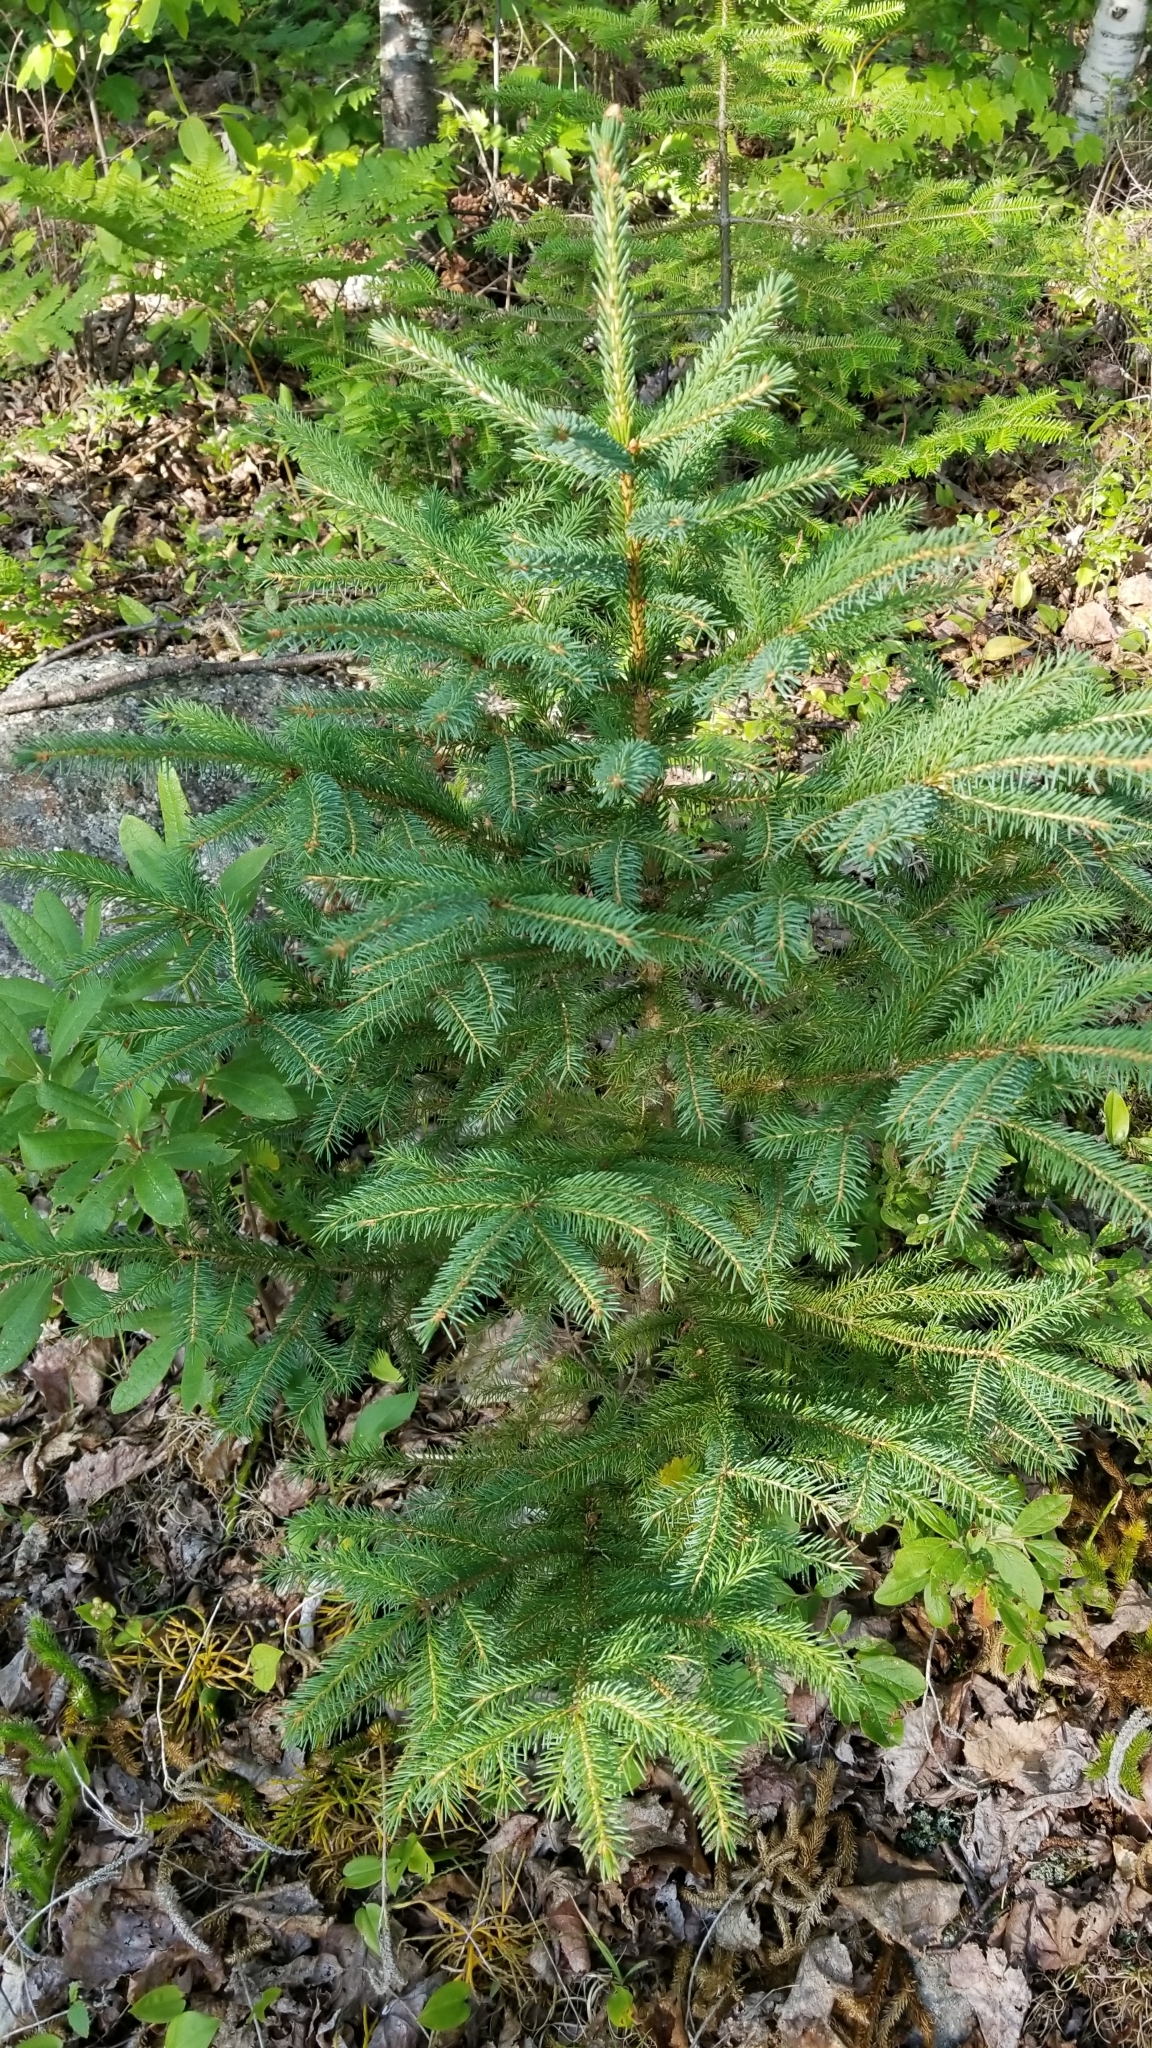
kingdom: Plantae
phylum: Tracheophyta
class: Pinopsida
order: Pinales
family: Pinaceae
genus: Picea
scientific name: Picea rubens
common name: Red spruce
